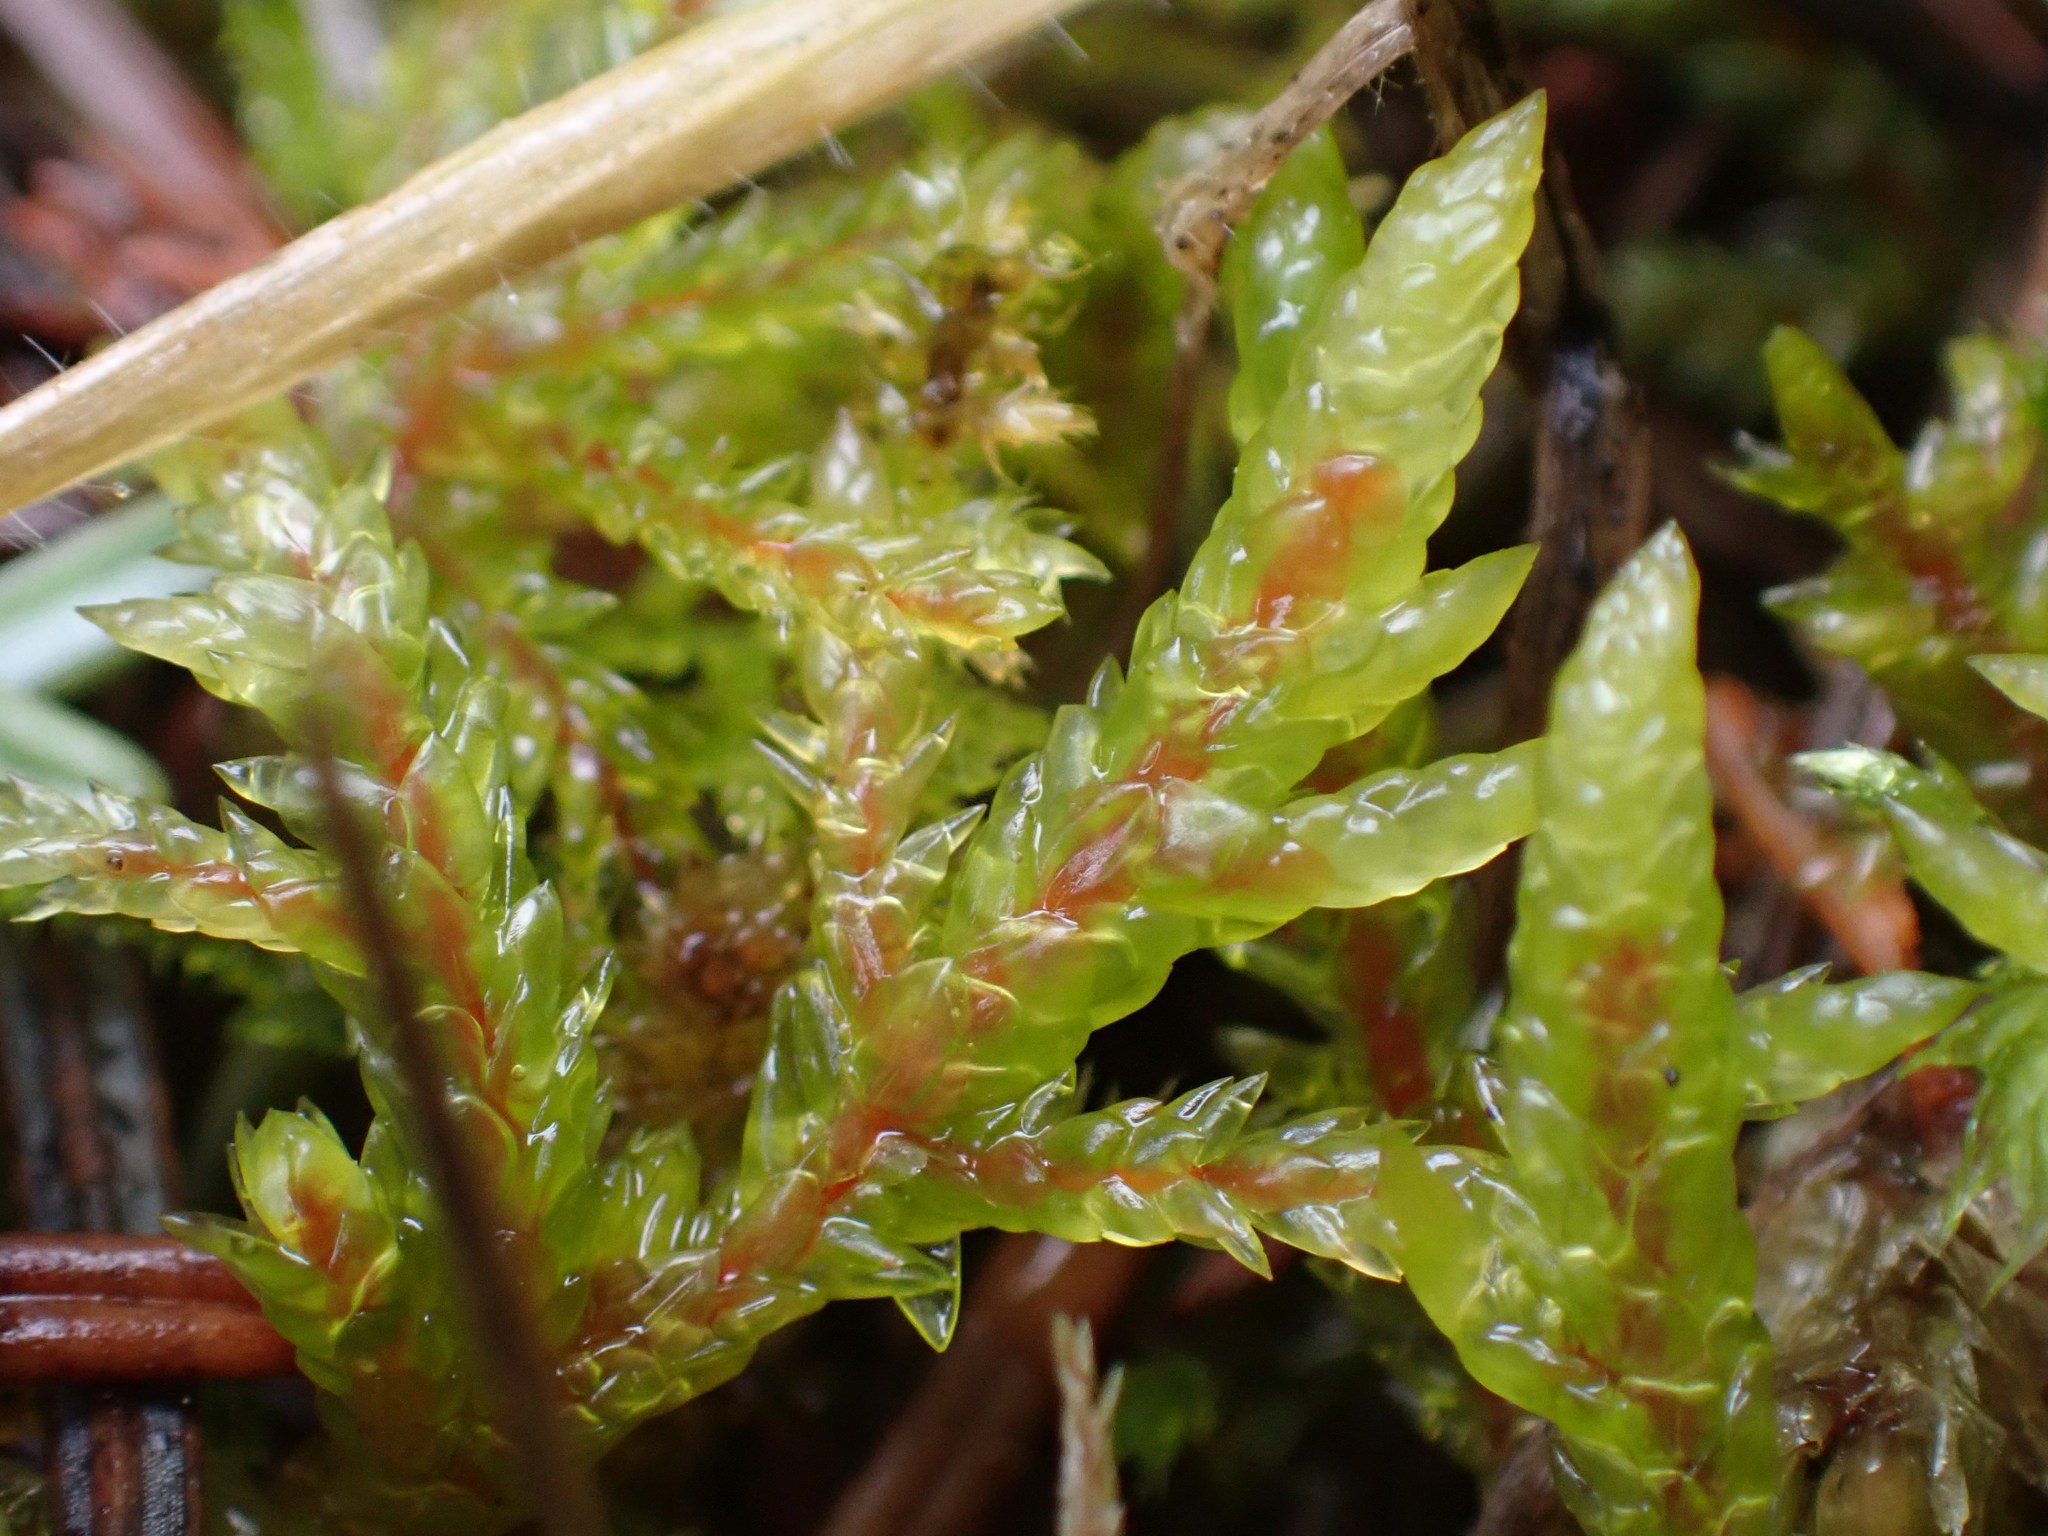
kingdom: Plantae
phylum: Bryophyta
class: Bryopsida
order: Hypnales
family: Hylocomiaceae
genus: Pleurozium
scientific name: Pleurozium schreberi
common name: Red-stemmed feather moss
